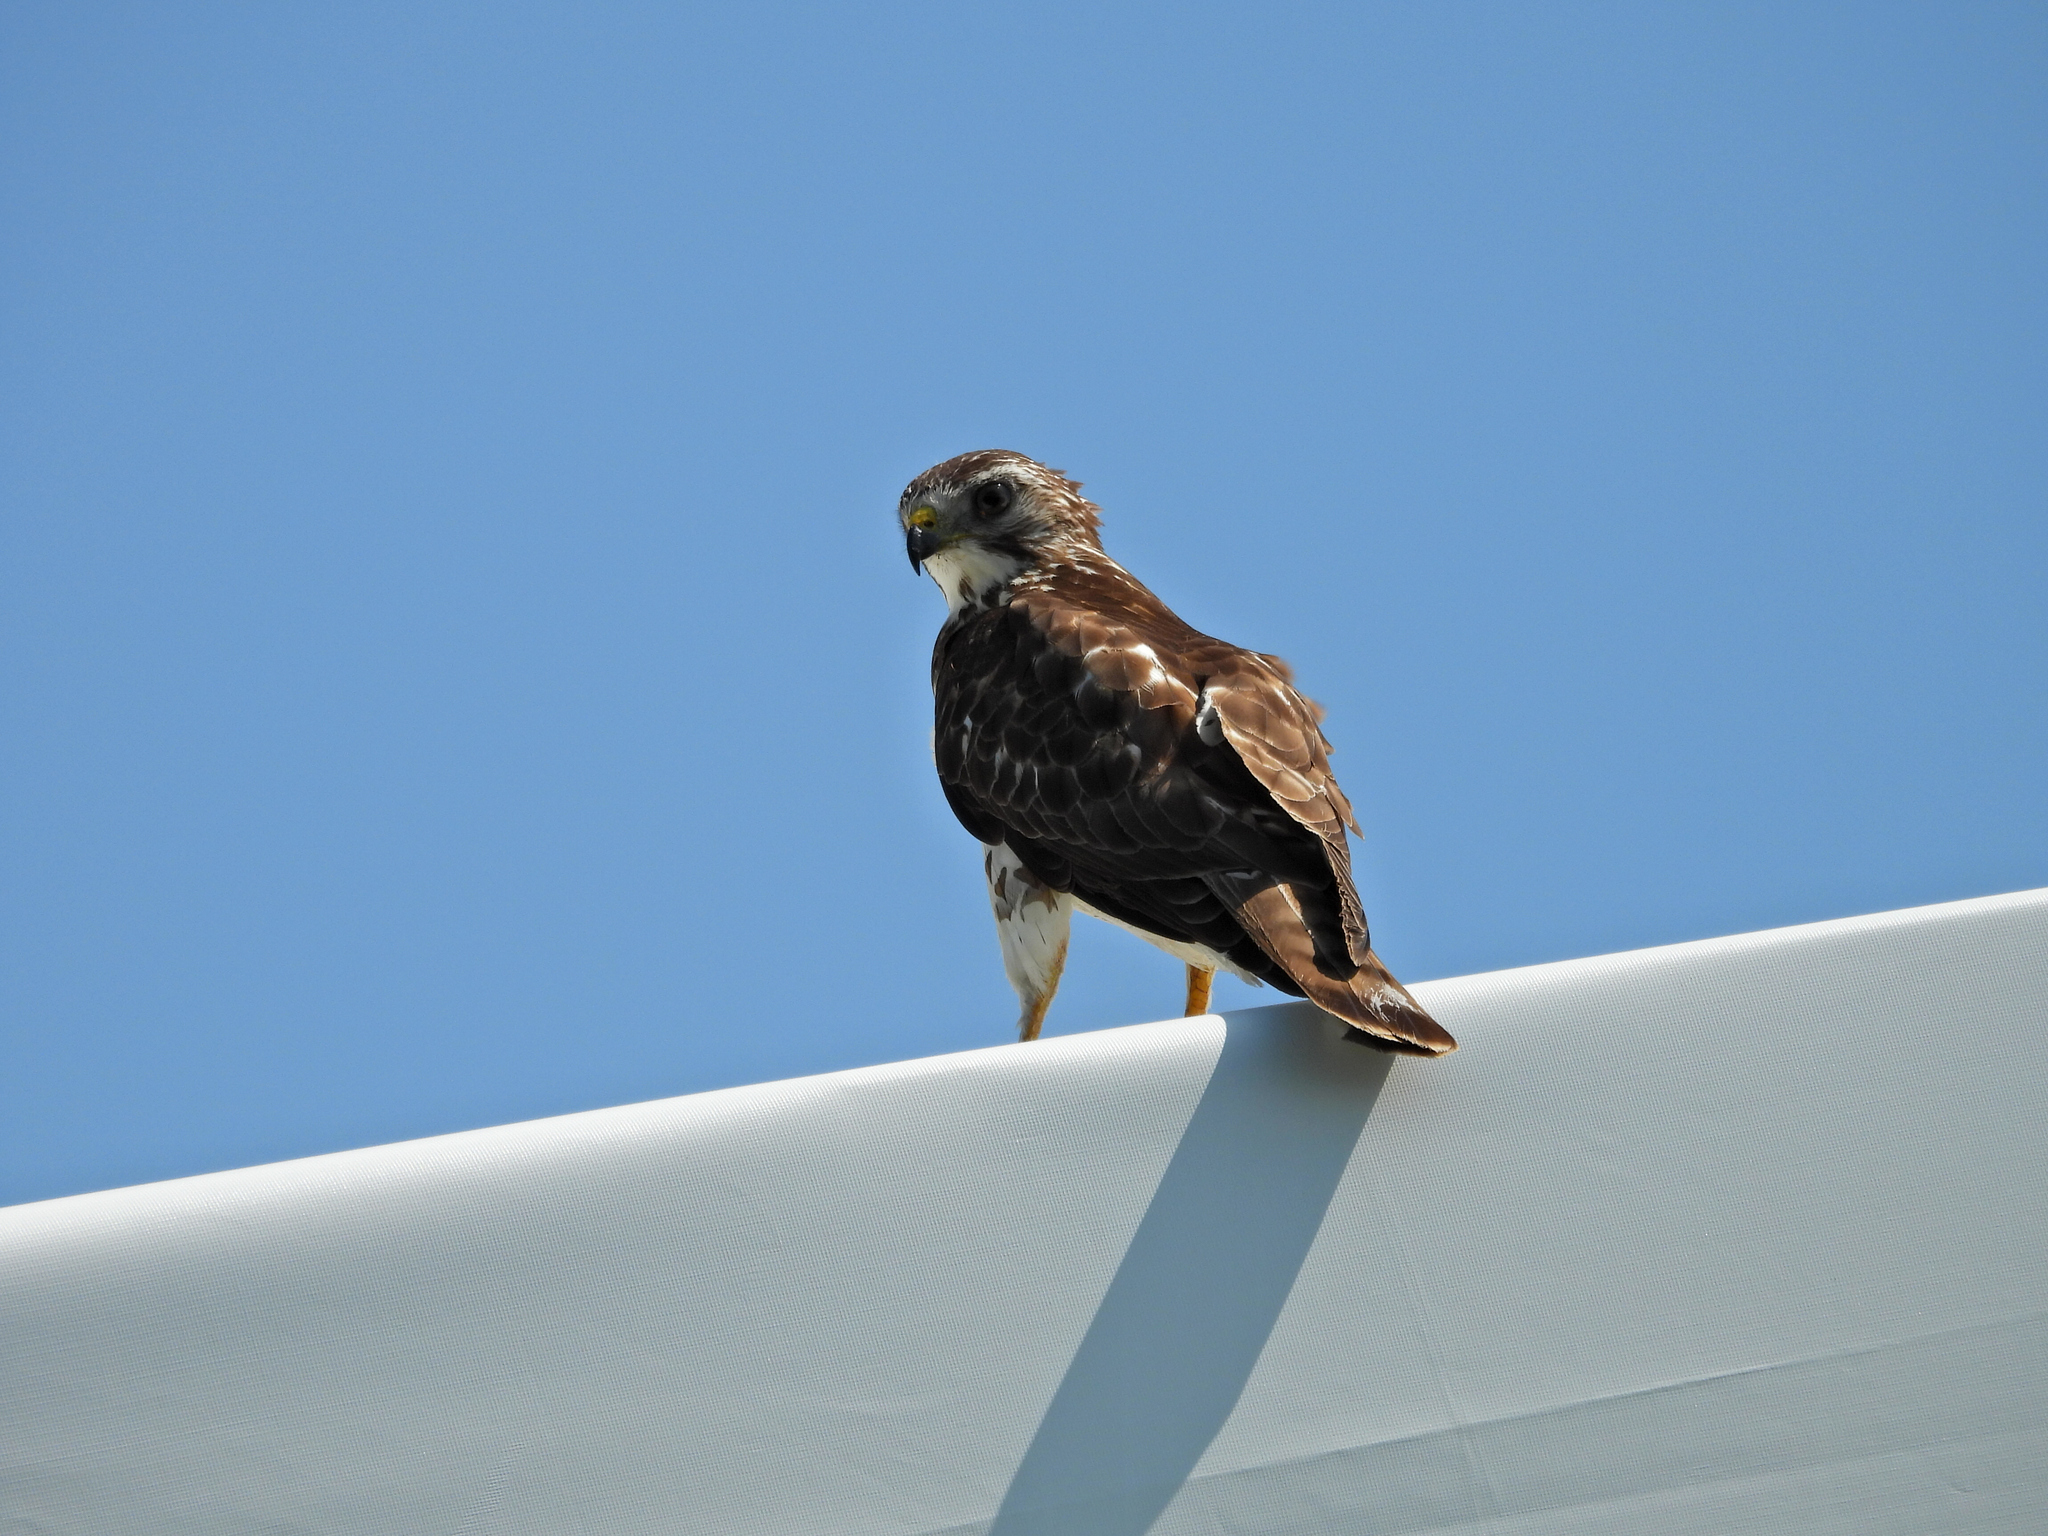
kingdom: Animalia
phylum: Chordata
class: Aves
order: Accipitriformes
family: Accipitridae
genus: Buteo
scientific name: Buteo platypterus
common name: Broad-winged hawk
